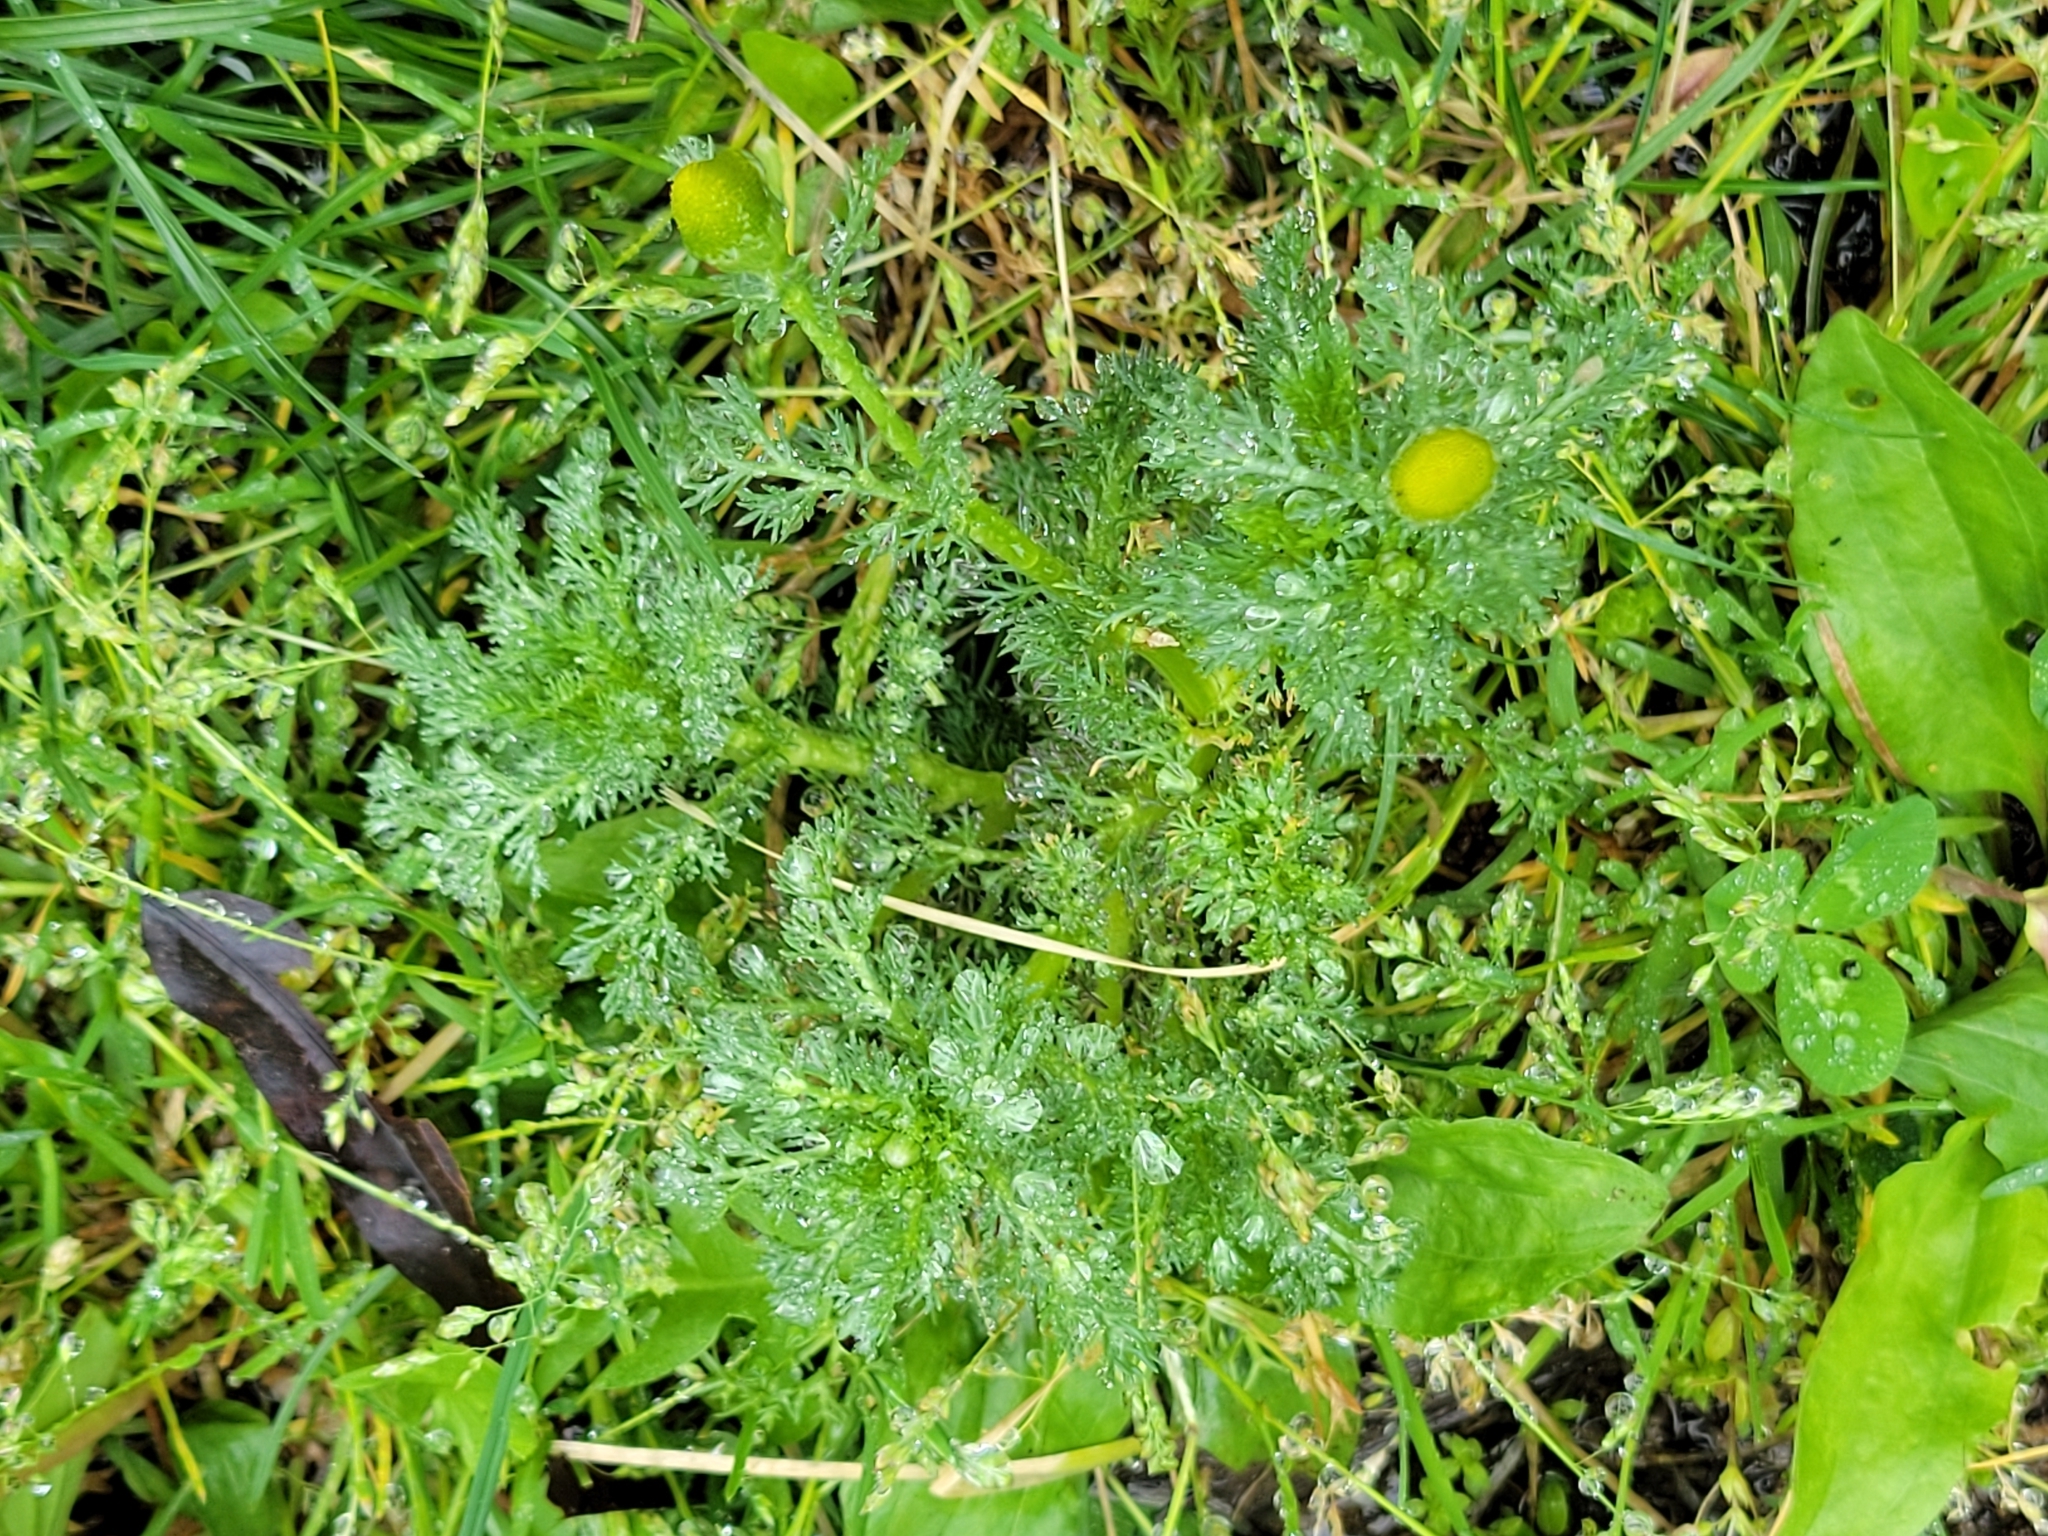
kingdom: Plantae
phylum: Tracheophyta
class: Magnoliopsida
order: Asterales
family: Asteraceae
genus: Matricaria
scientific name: Matricaria discoidea
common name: Disc mayweed
